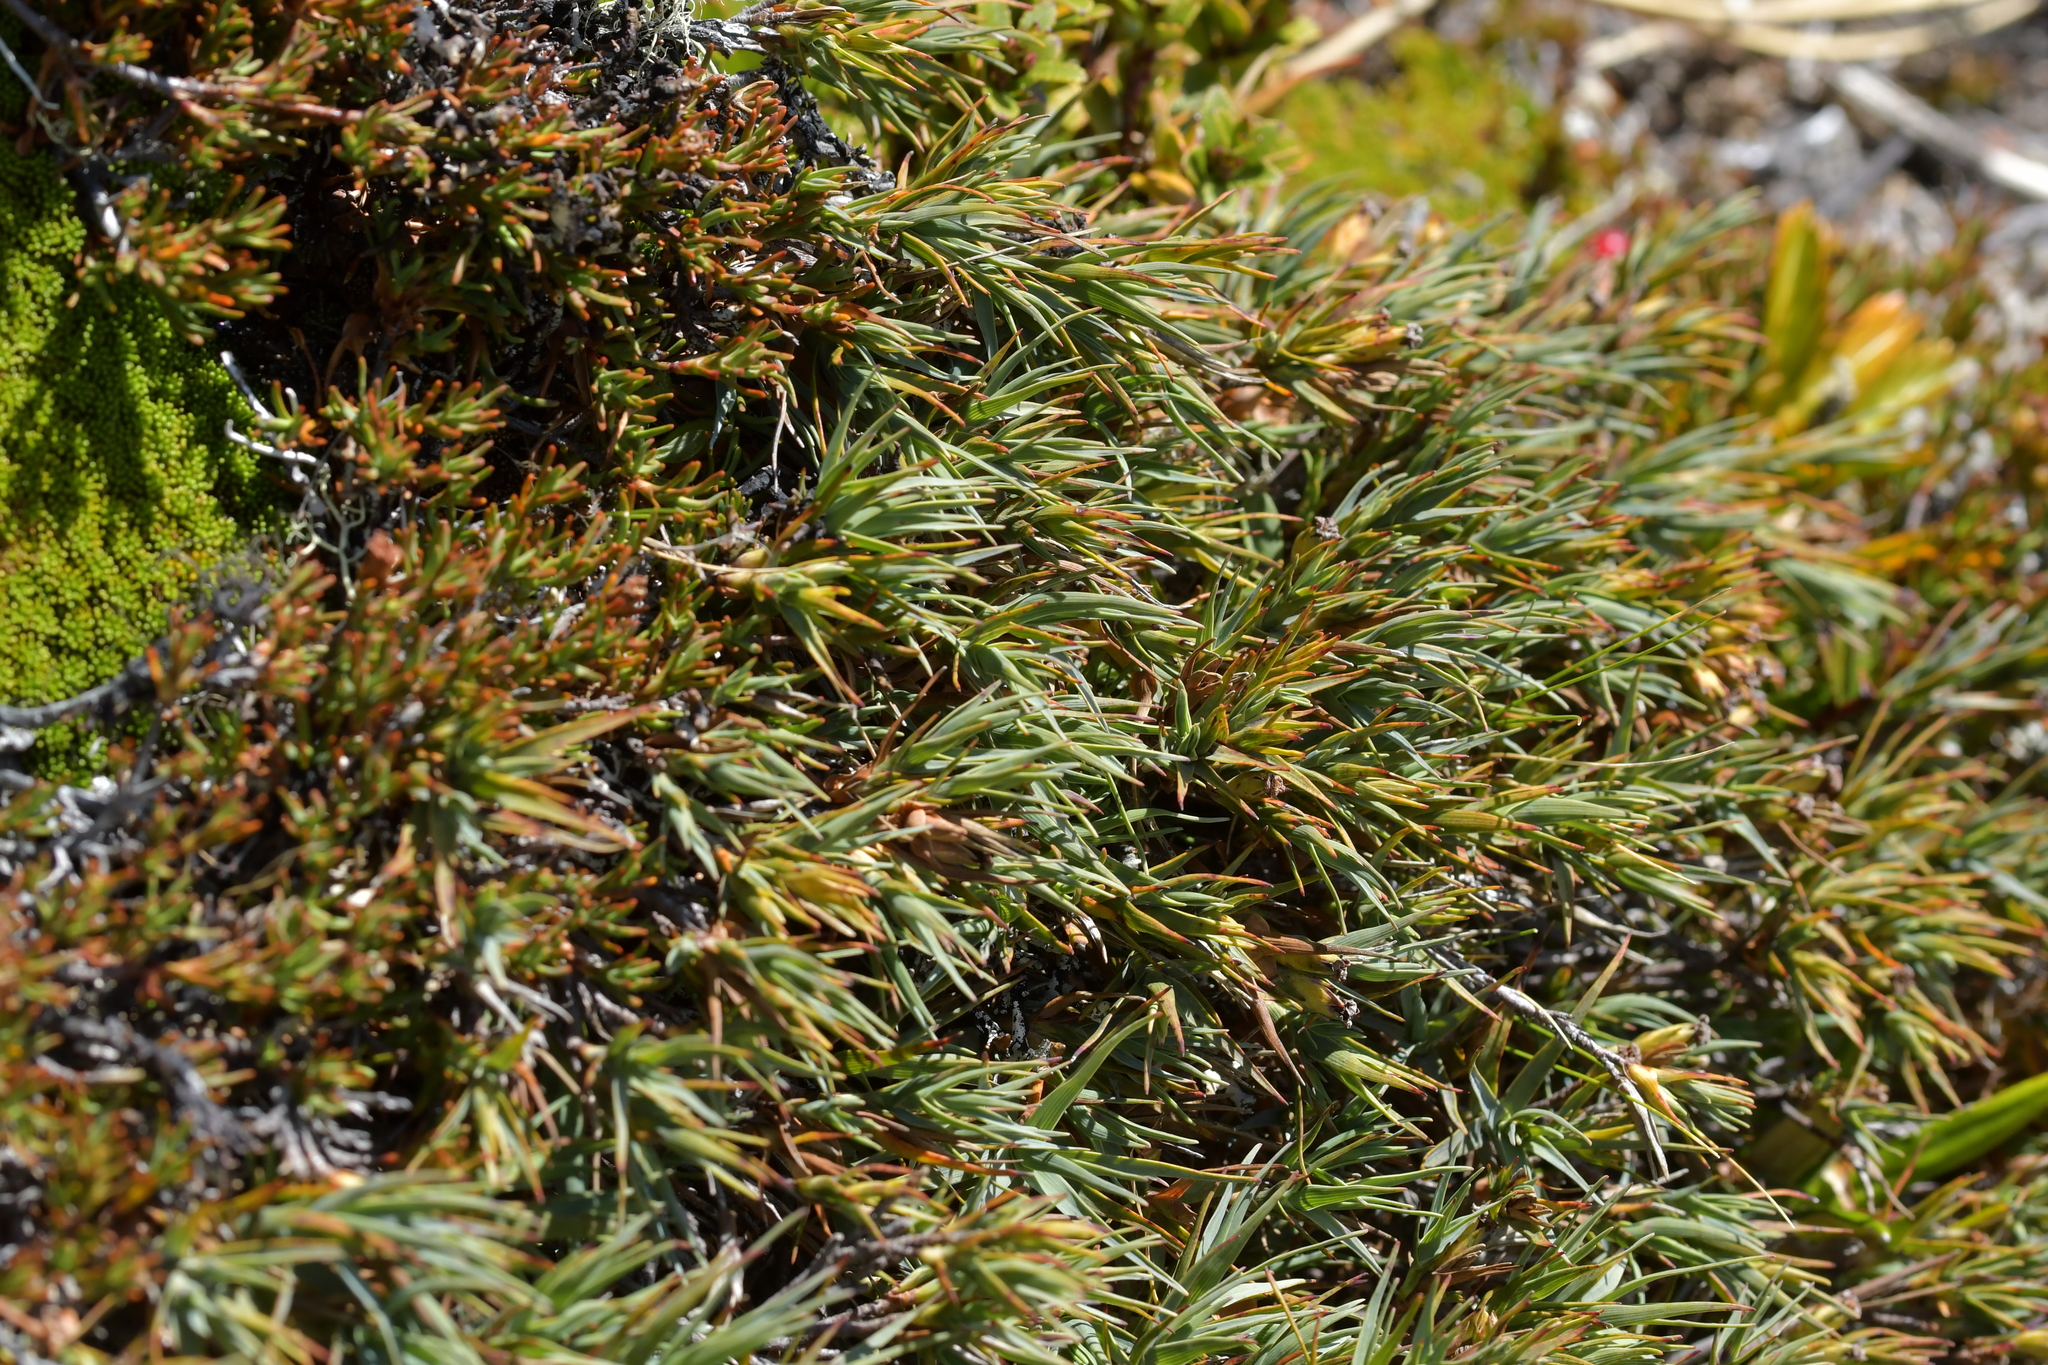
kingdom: Plantae
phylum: Tracheophyta
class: Magnoliopsida
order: Ericales
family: Ericaceae
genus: Dracophyllum
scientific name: Dracophyllum kirkii
